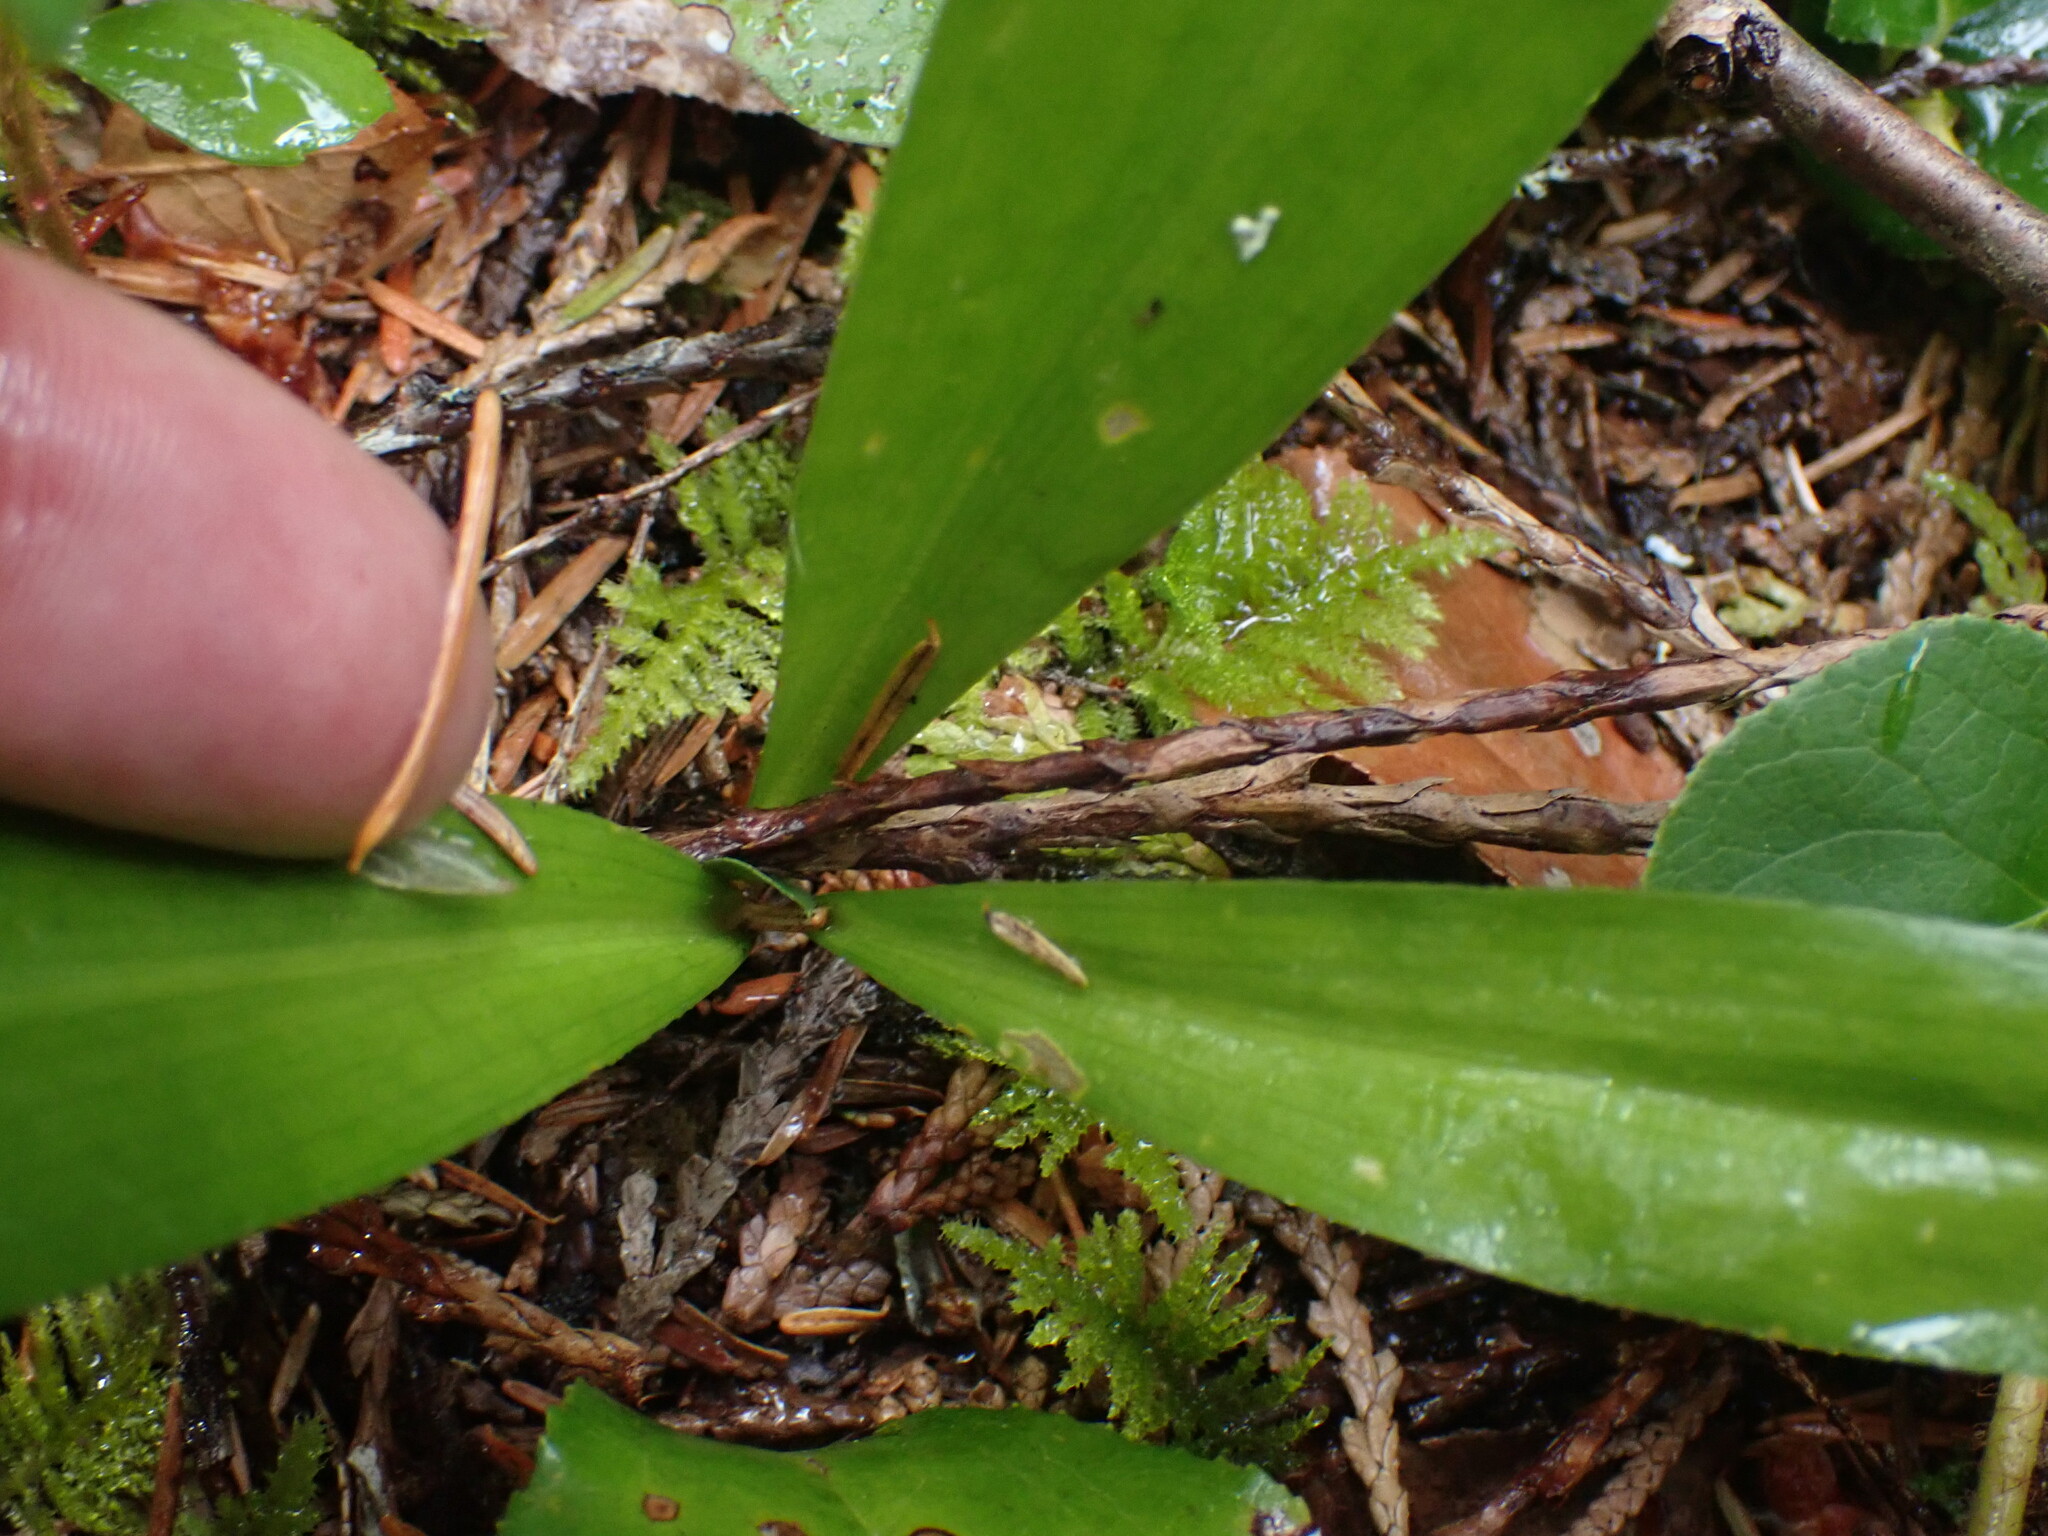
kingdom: Plantae
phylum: Tracheophyta
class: Liliopsida
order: Liliales
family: Liliaceae
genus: Clintonia
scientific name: Clintonia uniflora
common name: Queen's cup
